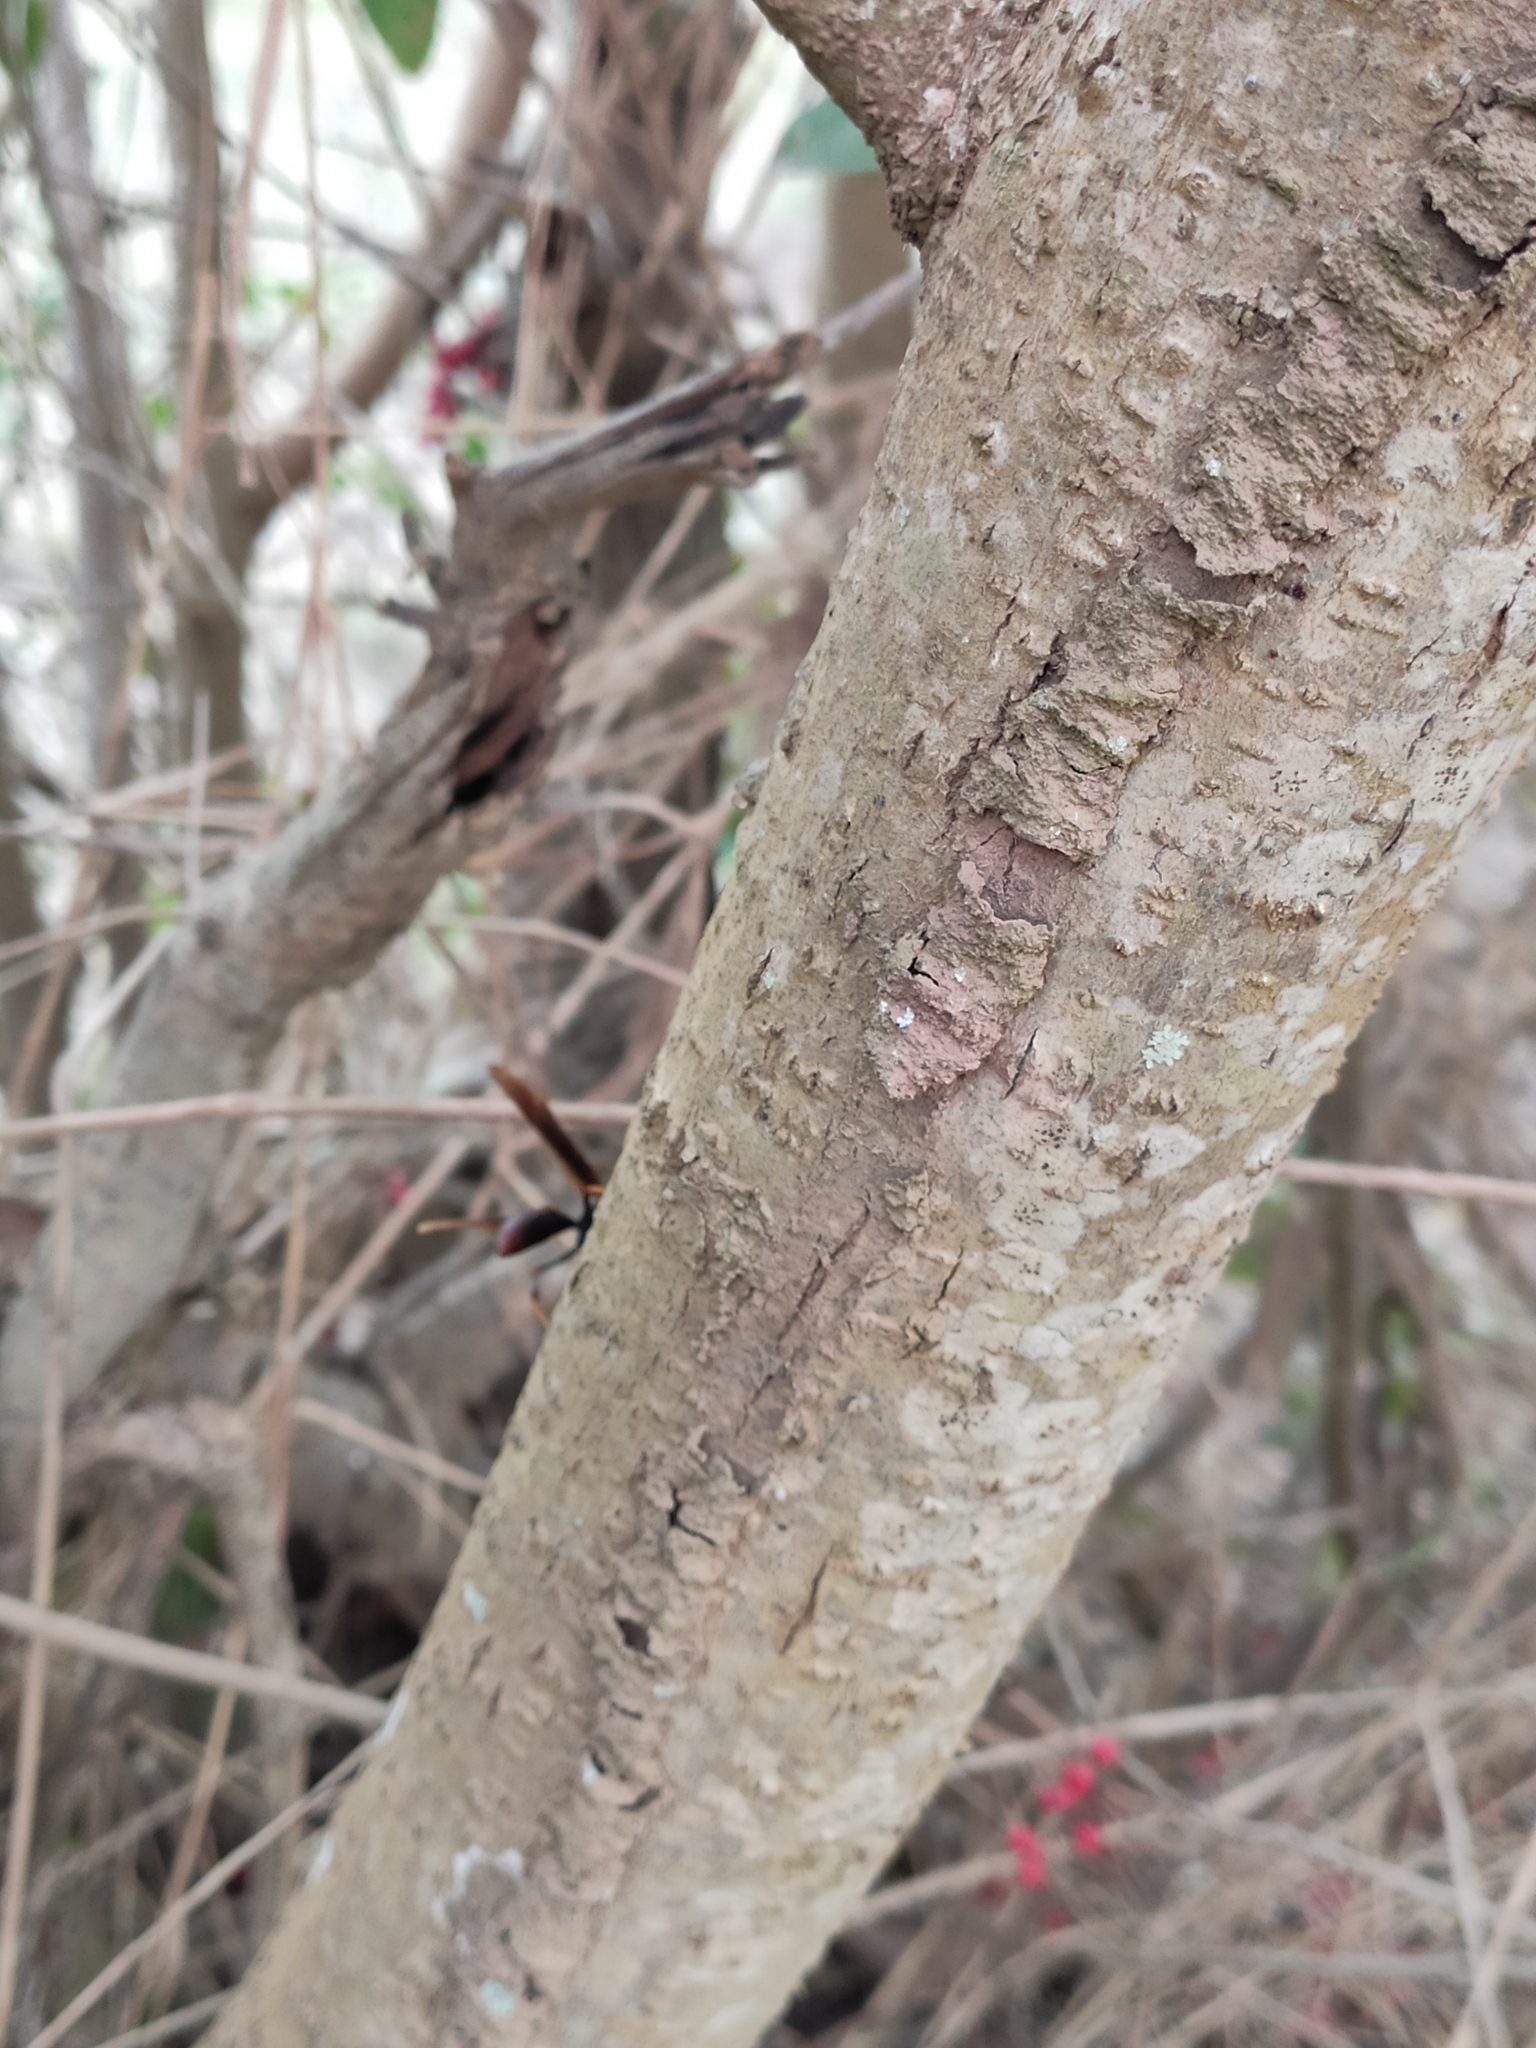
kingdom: Animalia
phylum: Arthropoda
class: Insecta
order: Hymenoptera
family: Eumenidae
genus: Polistes
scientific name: Polistes lanio
